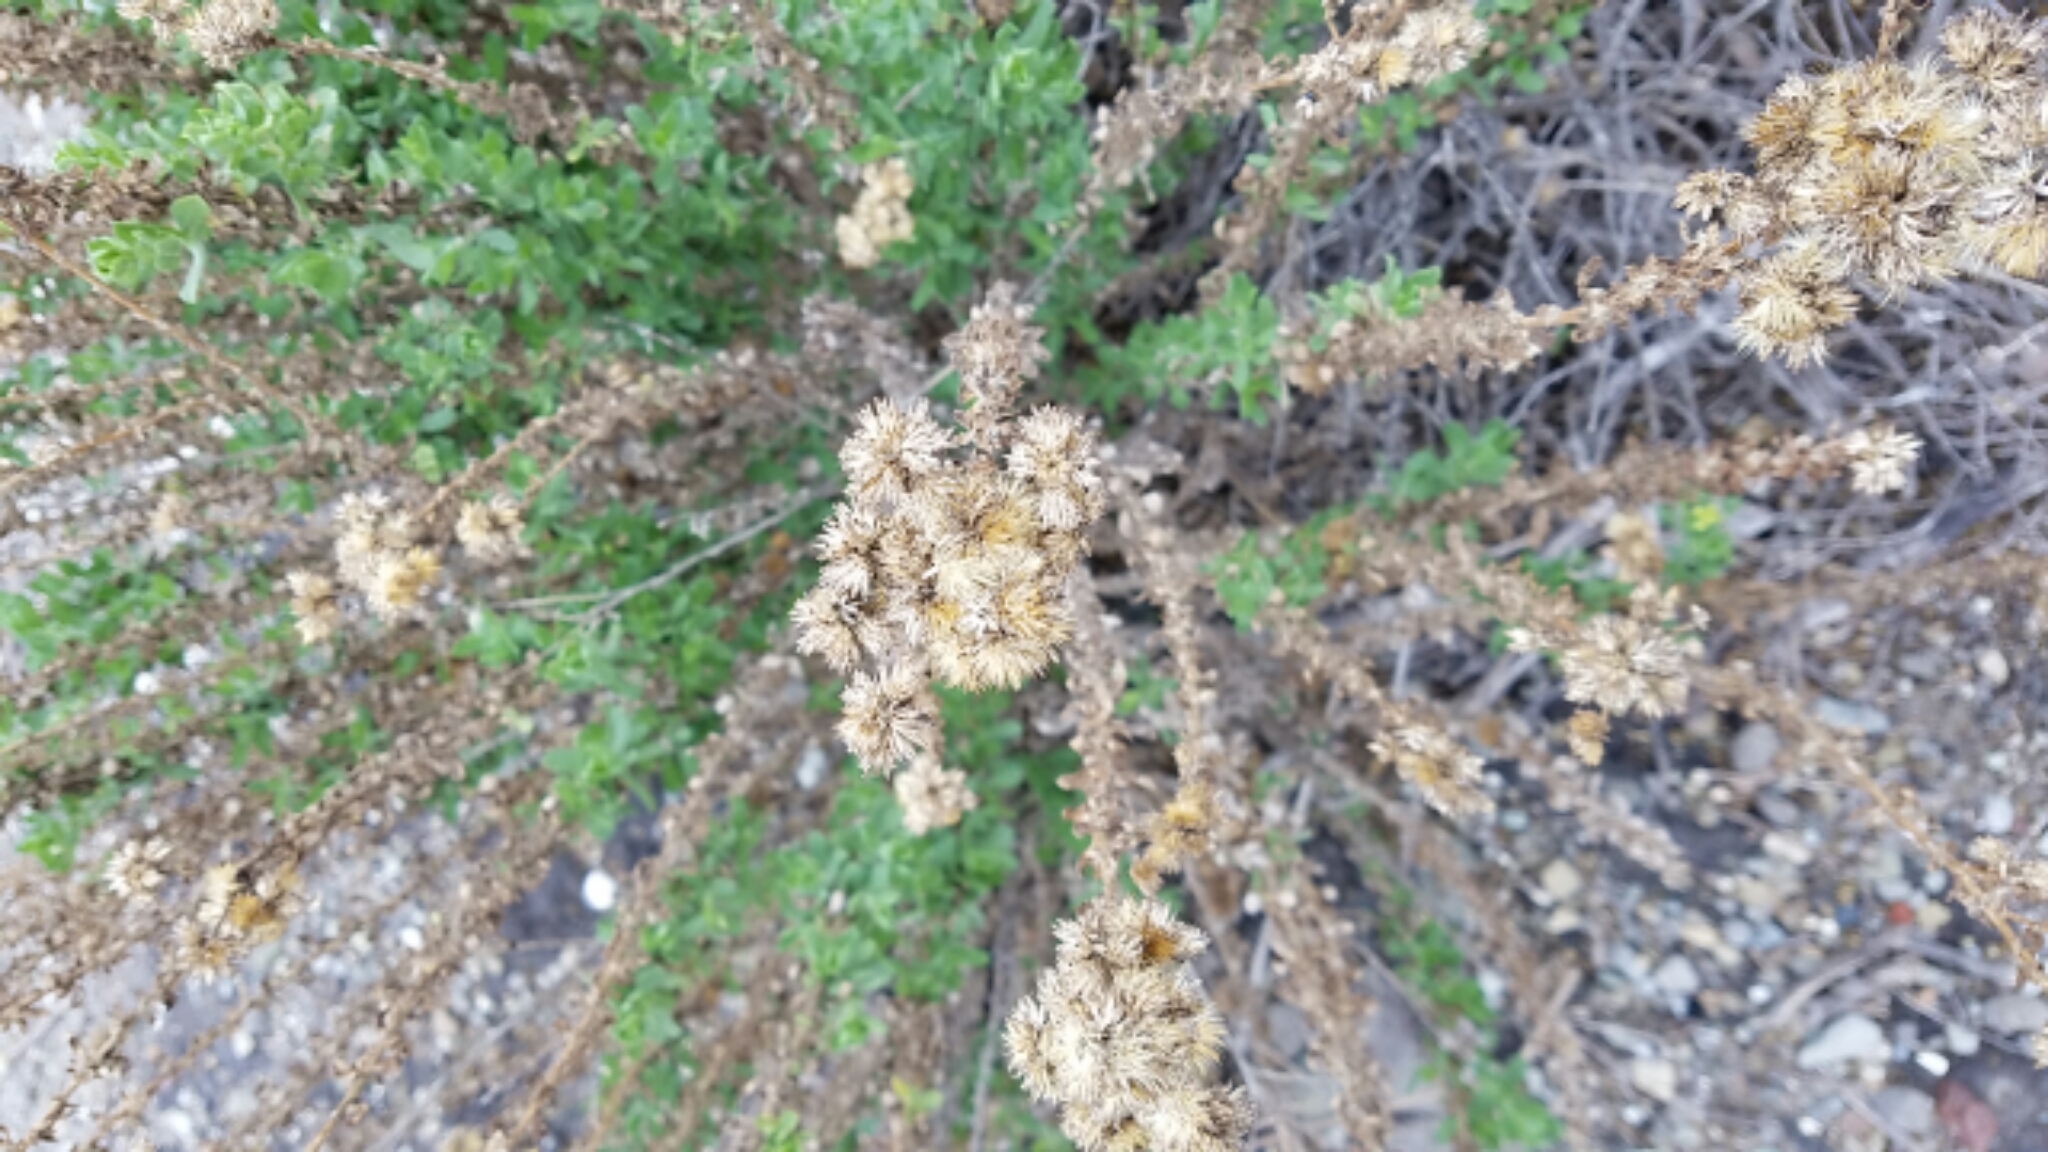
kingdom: Plantae
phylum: Tracheophyta
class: Magnoliopsida
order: Asterales
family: Asteraceae
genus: Isocoma
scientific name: Isocoma menziesii
